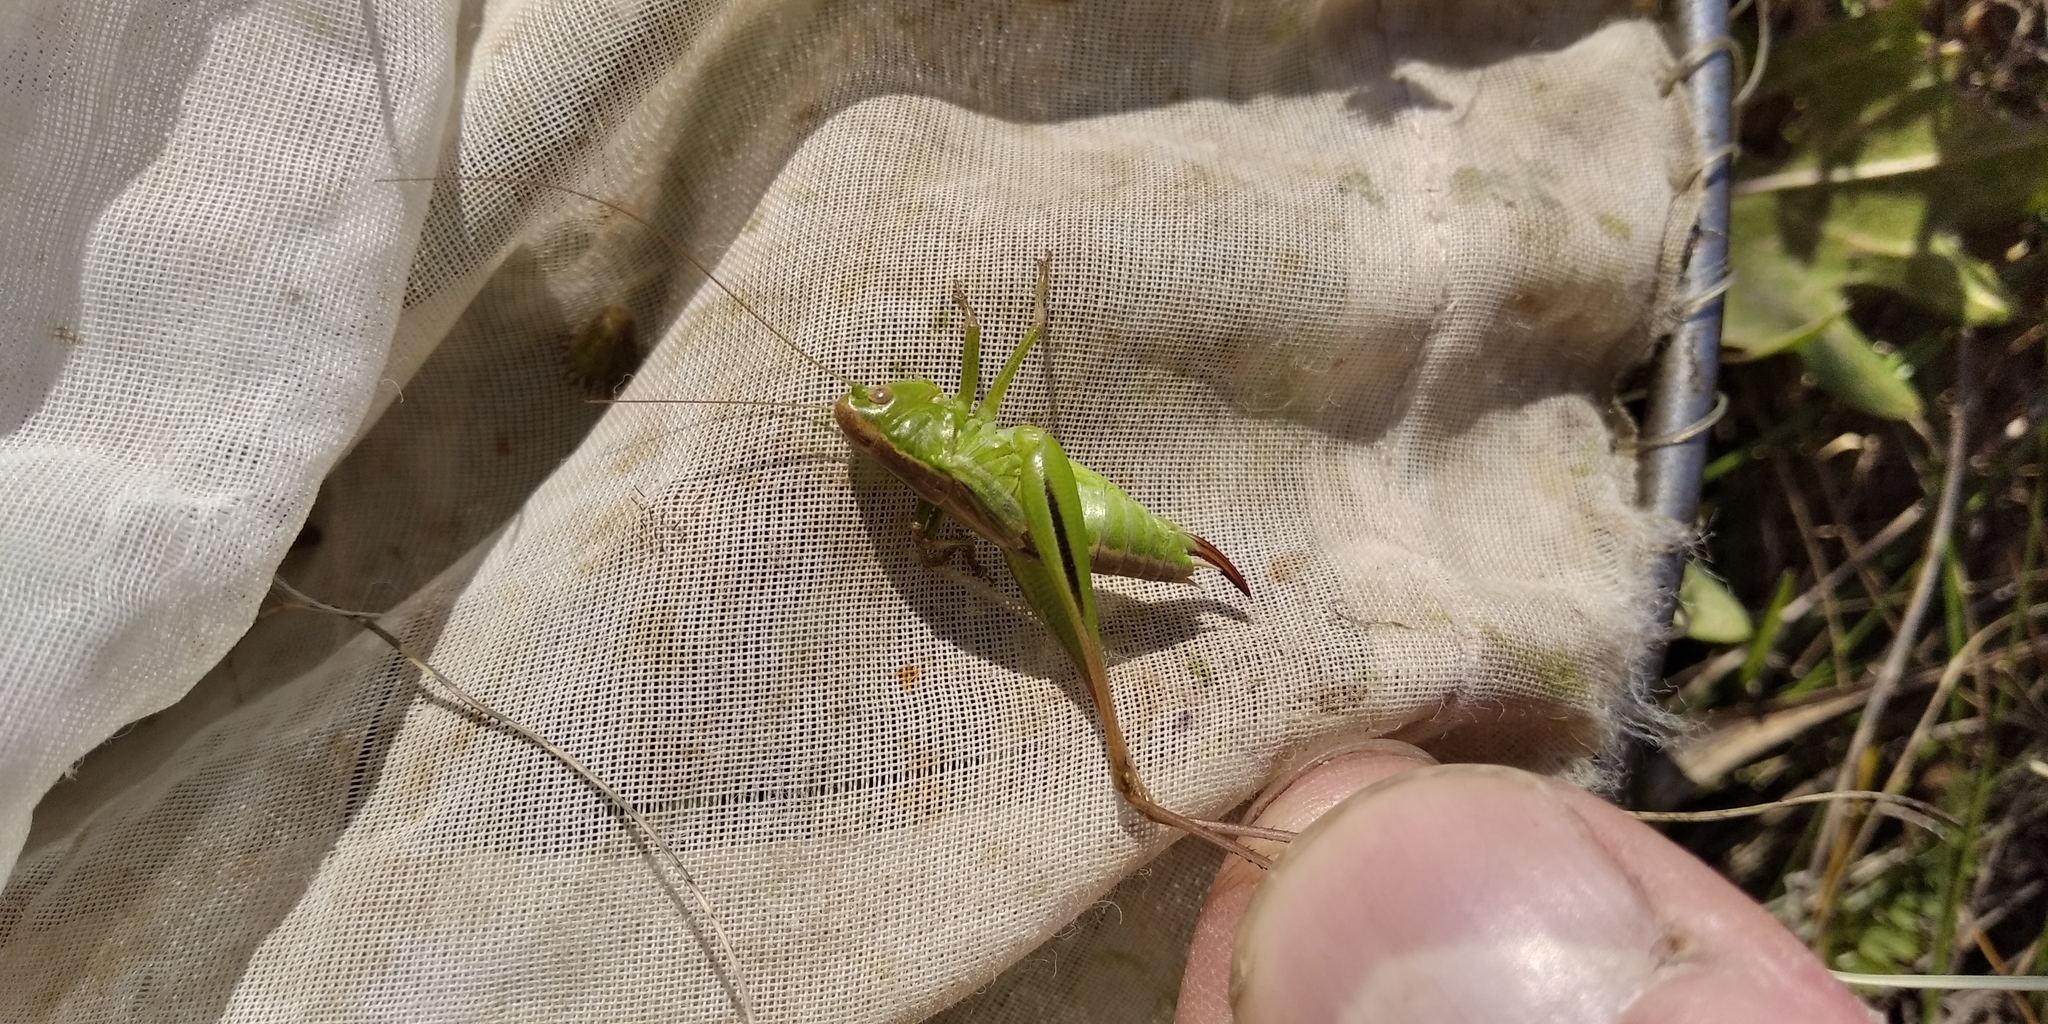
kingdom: Animalia
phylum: Arthropoda
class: Insecta
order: Orthoptera
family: Tettigoniidae
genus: Bicolorana
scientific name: Bicolorana bicolor
